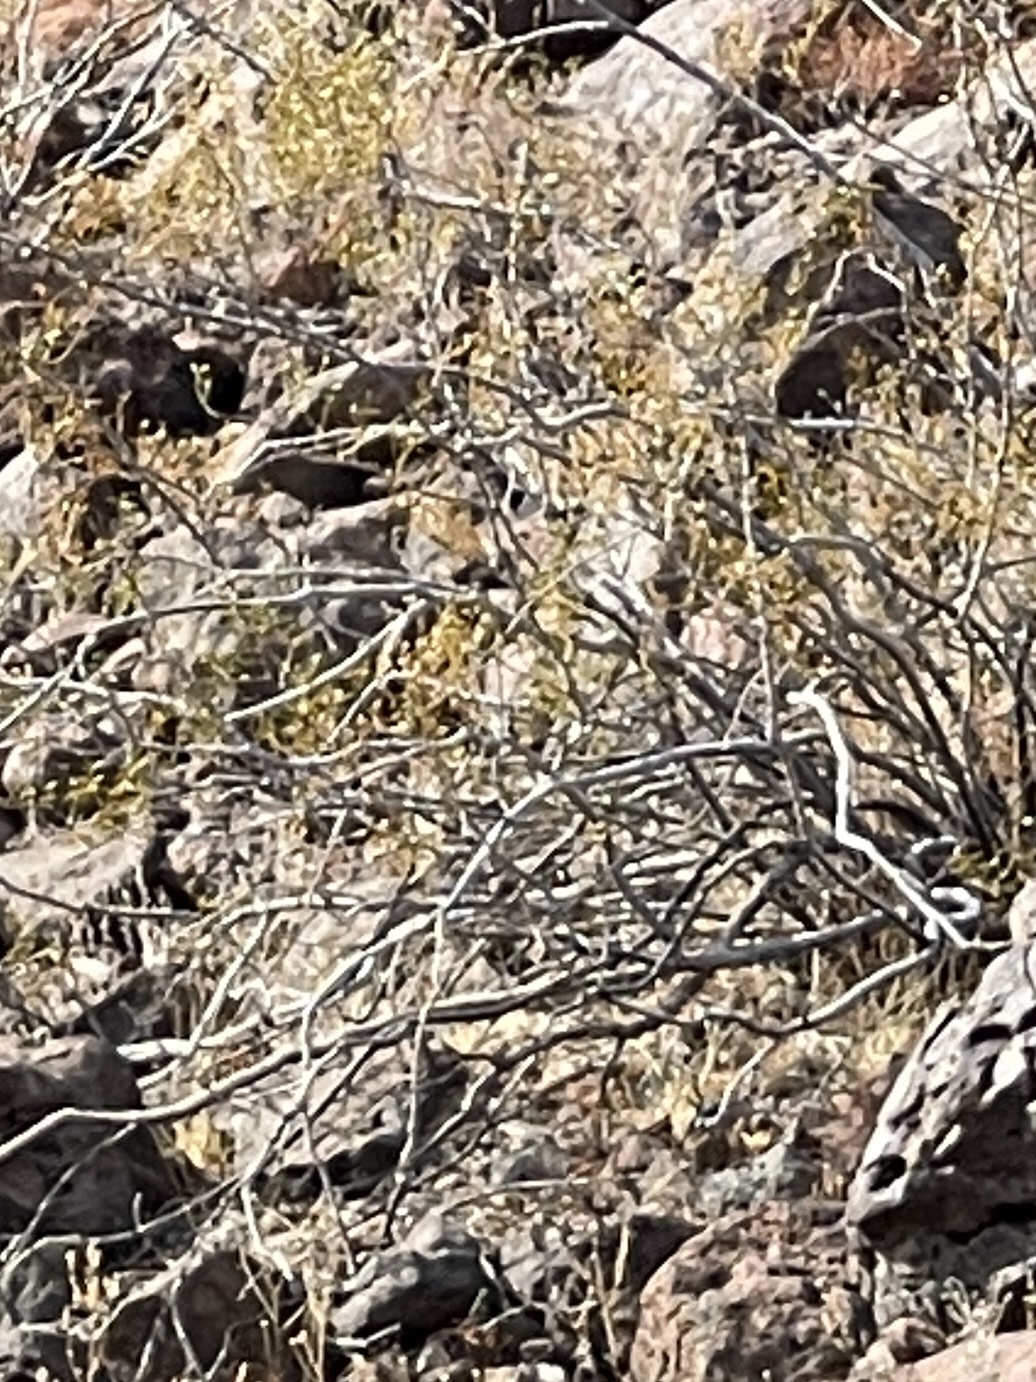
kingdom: Plantae
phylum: Tracheophyta
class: Magnoliopsida
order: Zygophyllales
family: Zygophyllaceae
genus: Larrea
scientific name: Larrea tridentata
